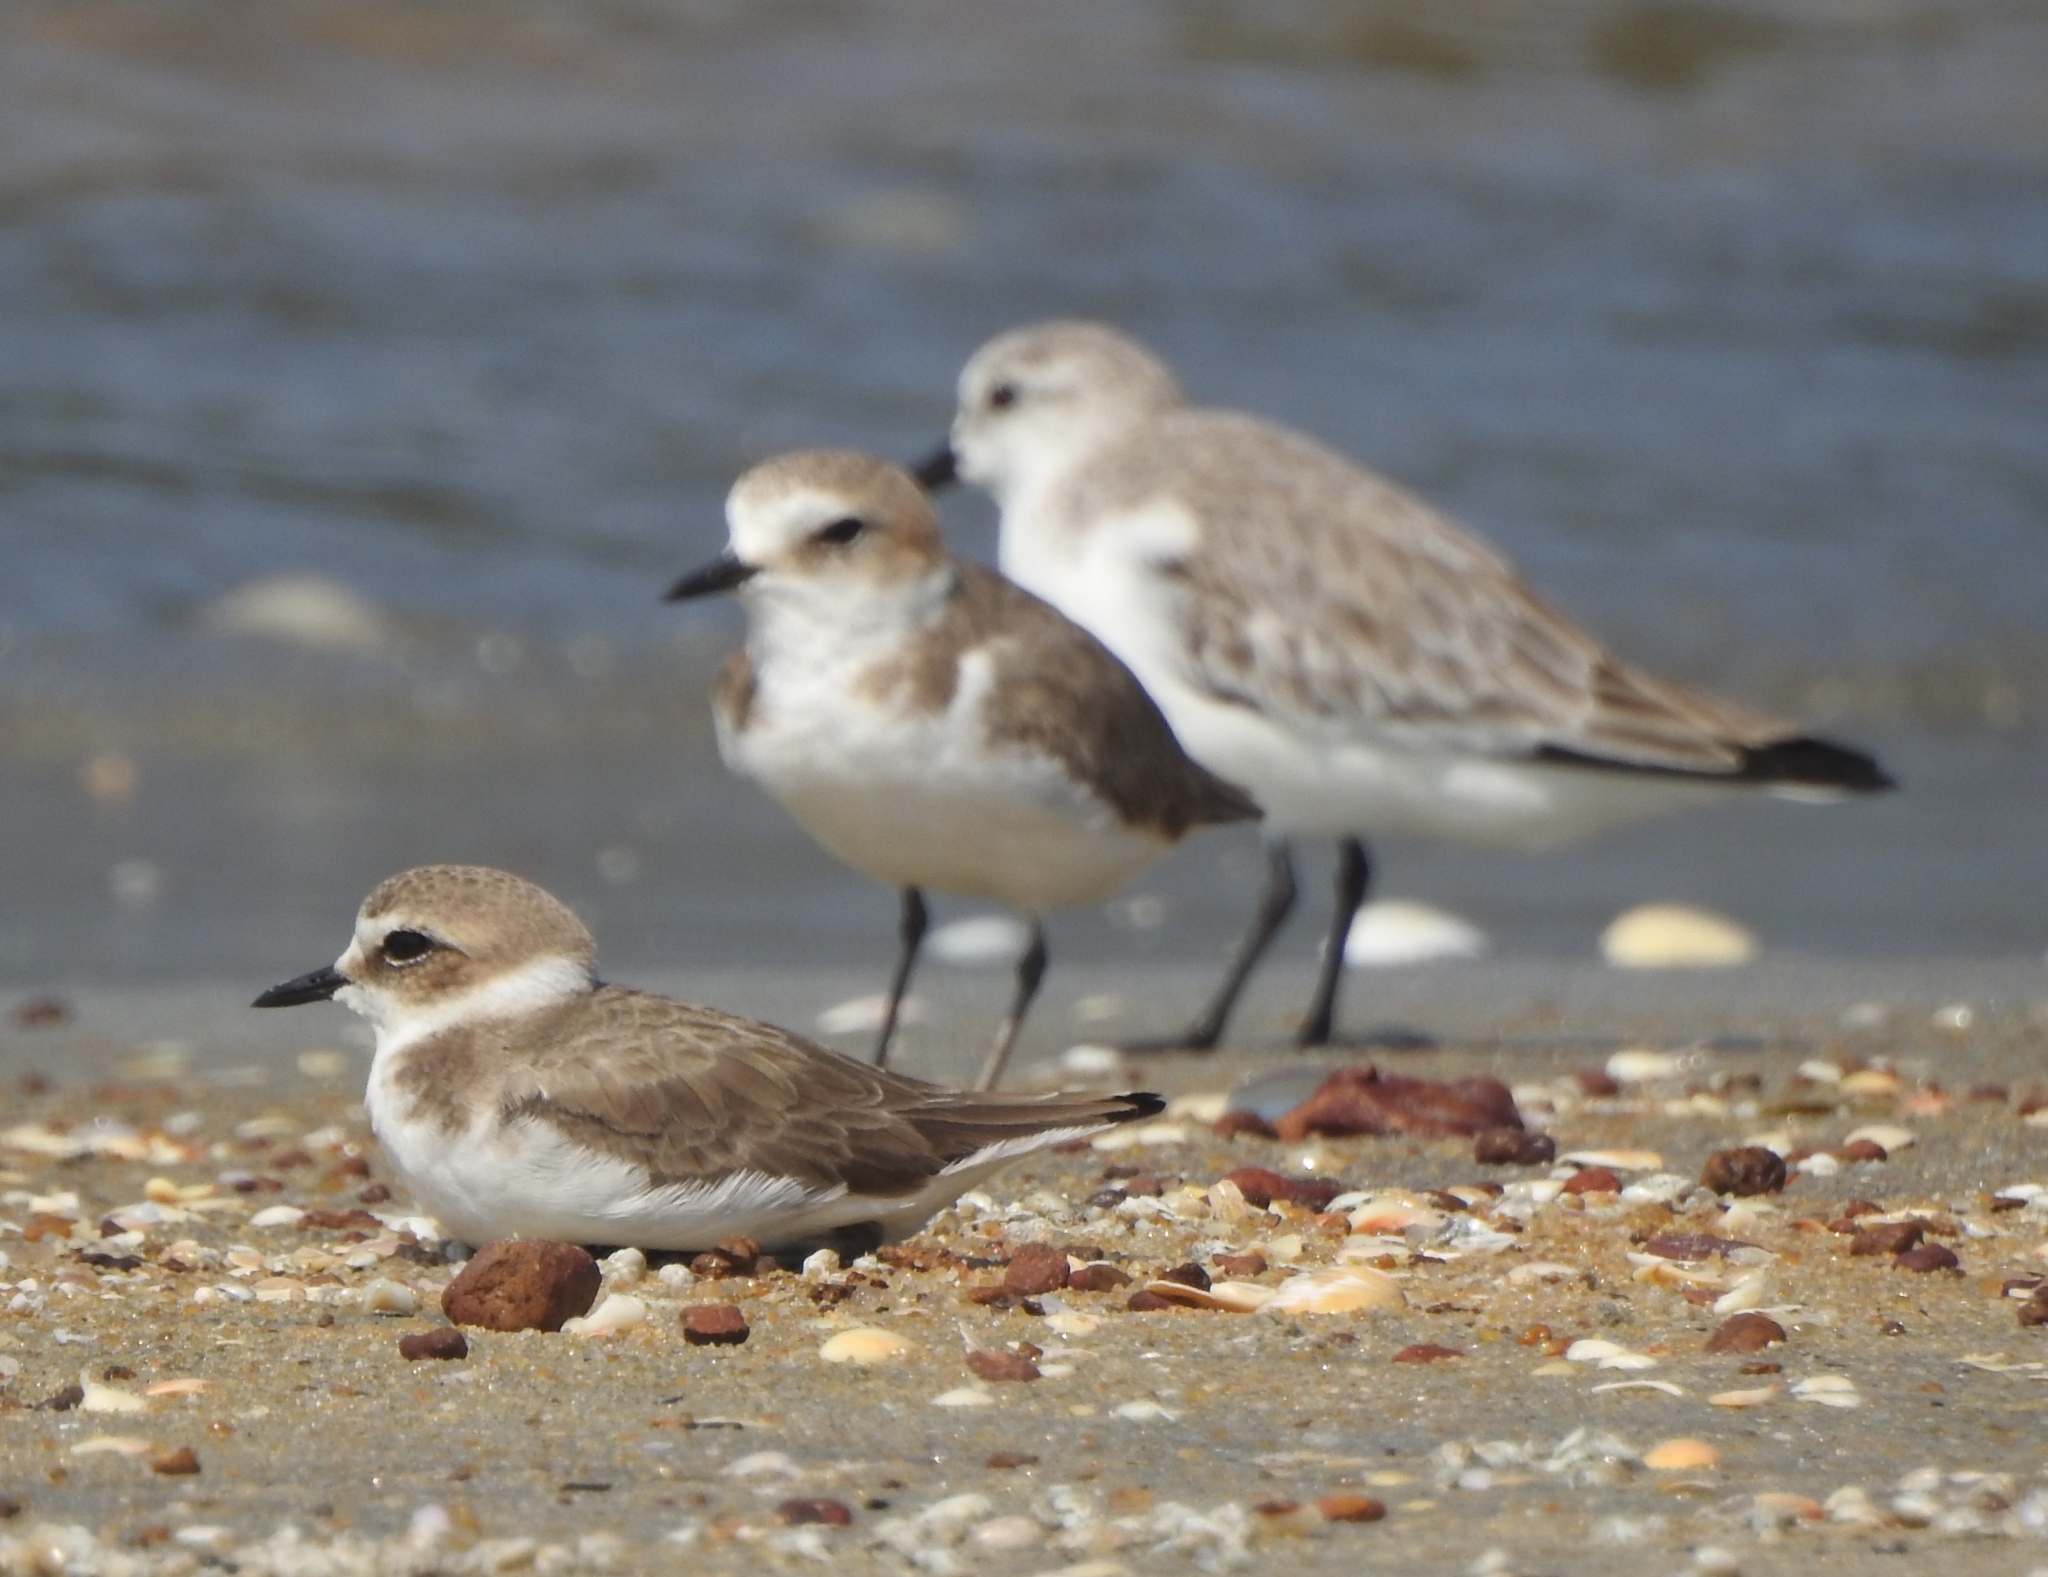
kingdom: Animalia
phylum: Chordata
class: Aves
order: Charadriiformes
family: Charadriidae
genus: Charadrius
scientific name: Charadrius alexandrinus
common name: Kentish plover
